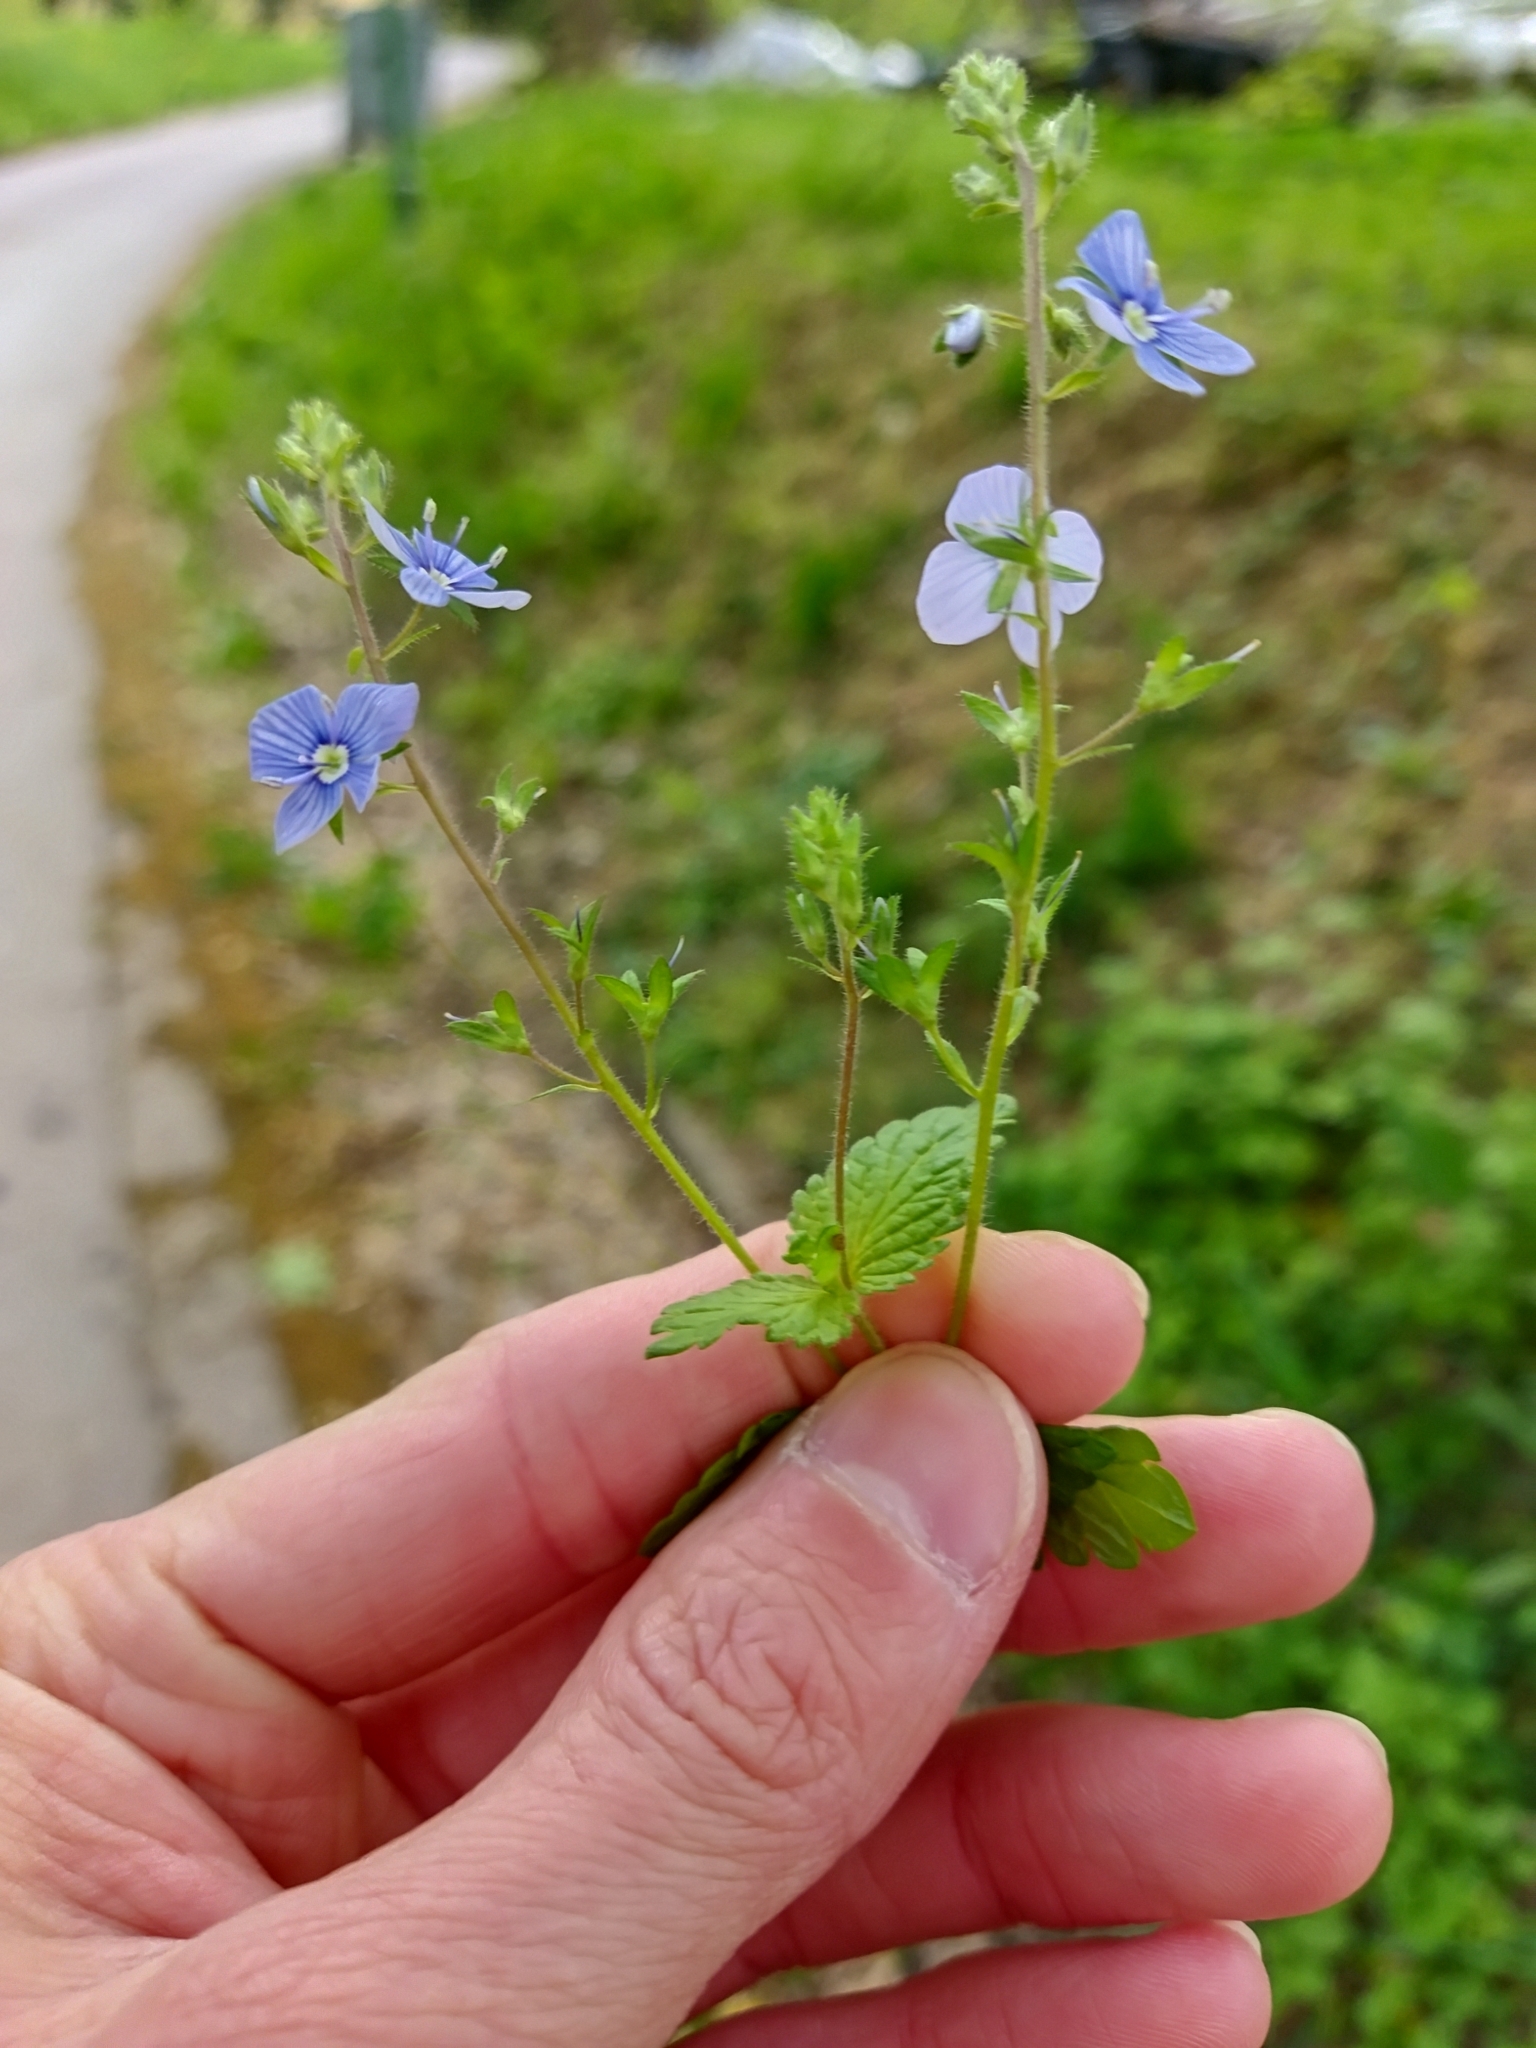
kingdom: Plantae
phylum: Tracheophyta
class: Magnoliopsida
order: Lamiales
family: Plantaginaceae
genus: Veronica
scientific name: Veronica chamaedrys
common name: Germander speedwell
